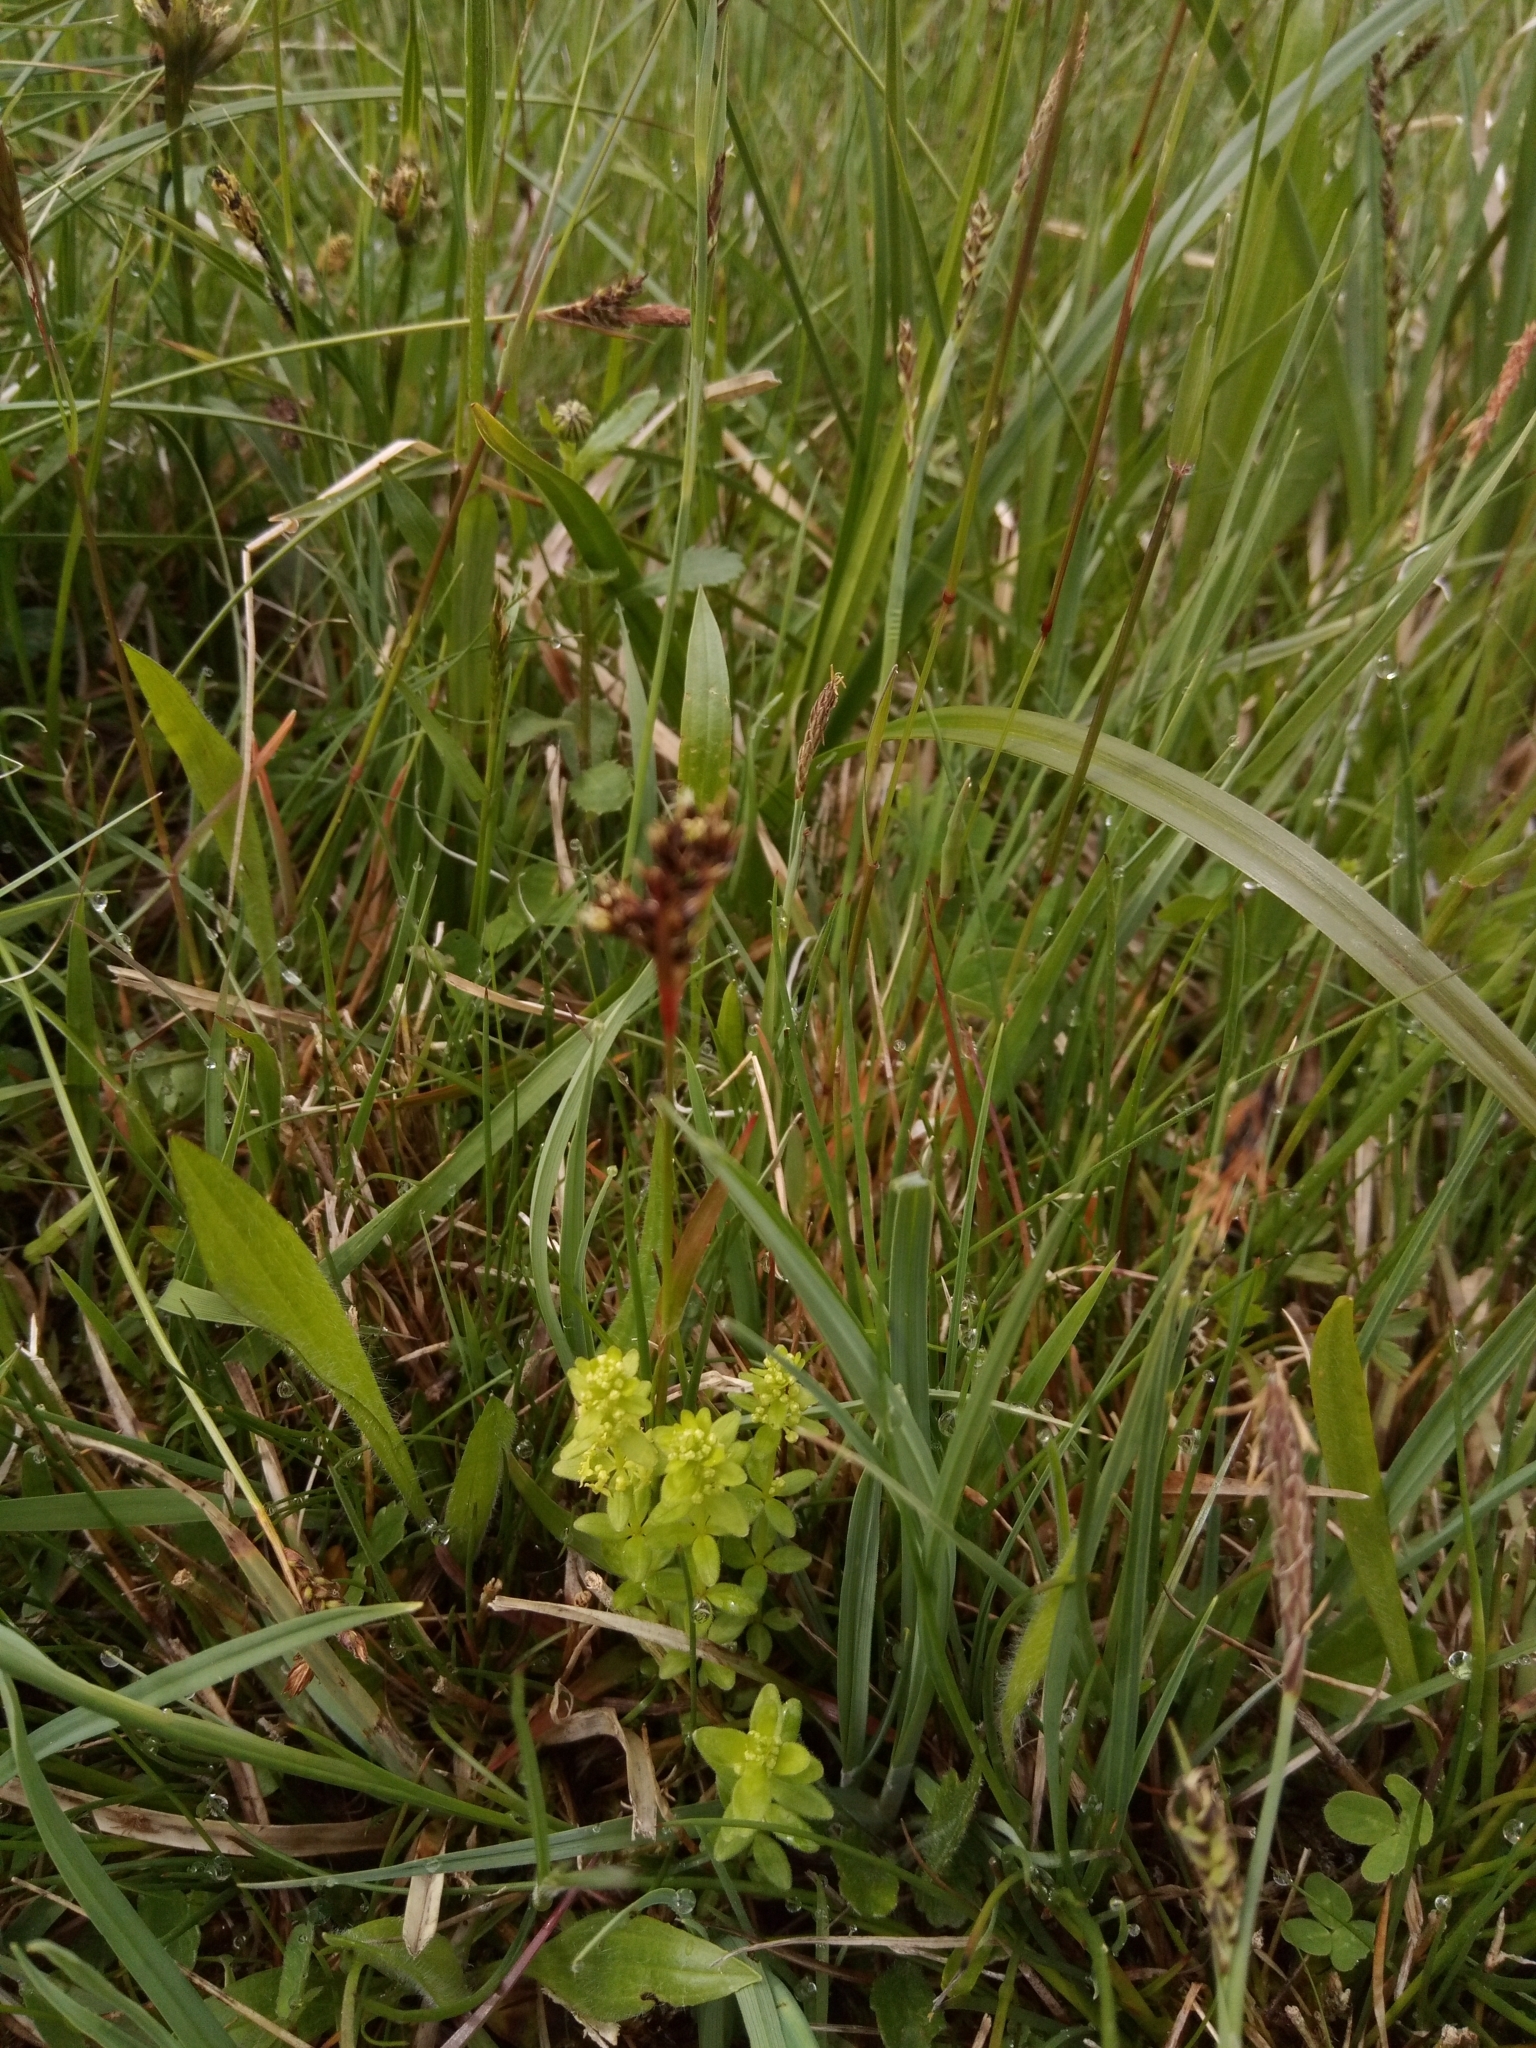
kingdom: Plantae
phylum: Tracheophyta
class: Magnoliopsida
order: Gentianales
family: Rubiaceae
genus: Cruciata
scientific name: Cruciata glabra
